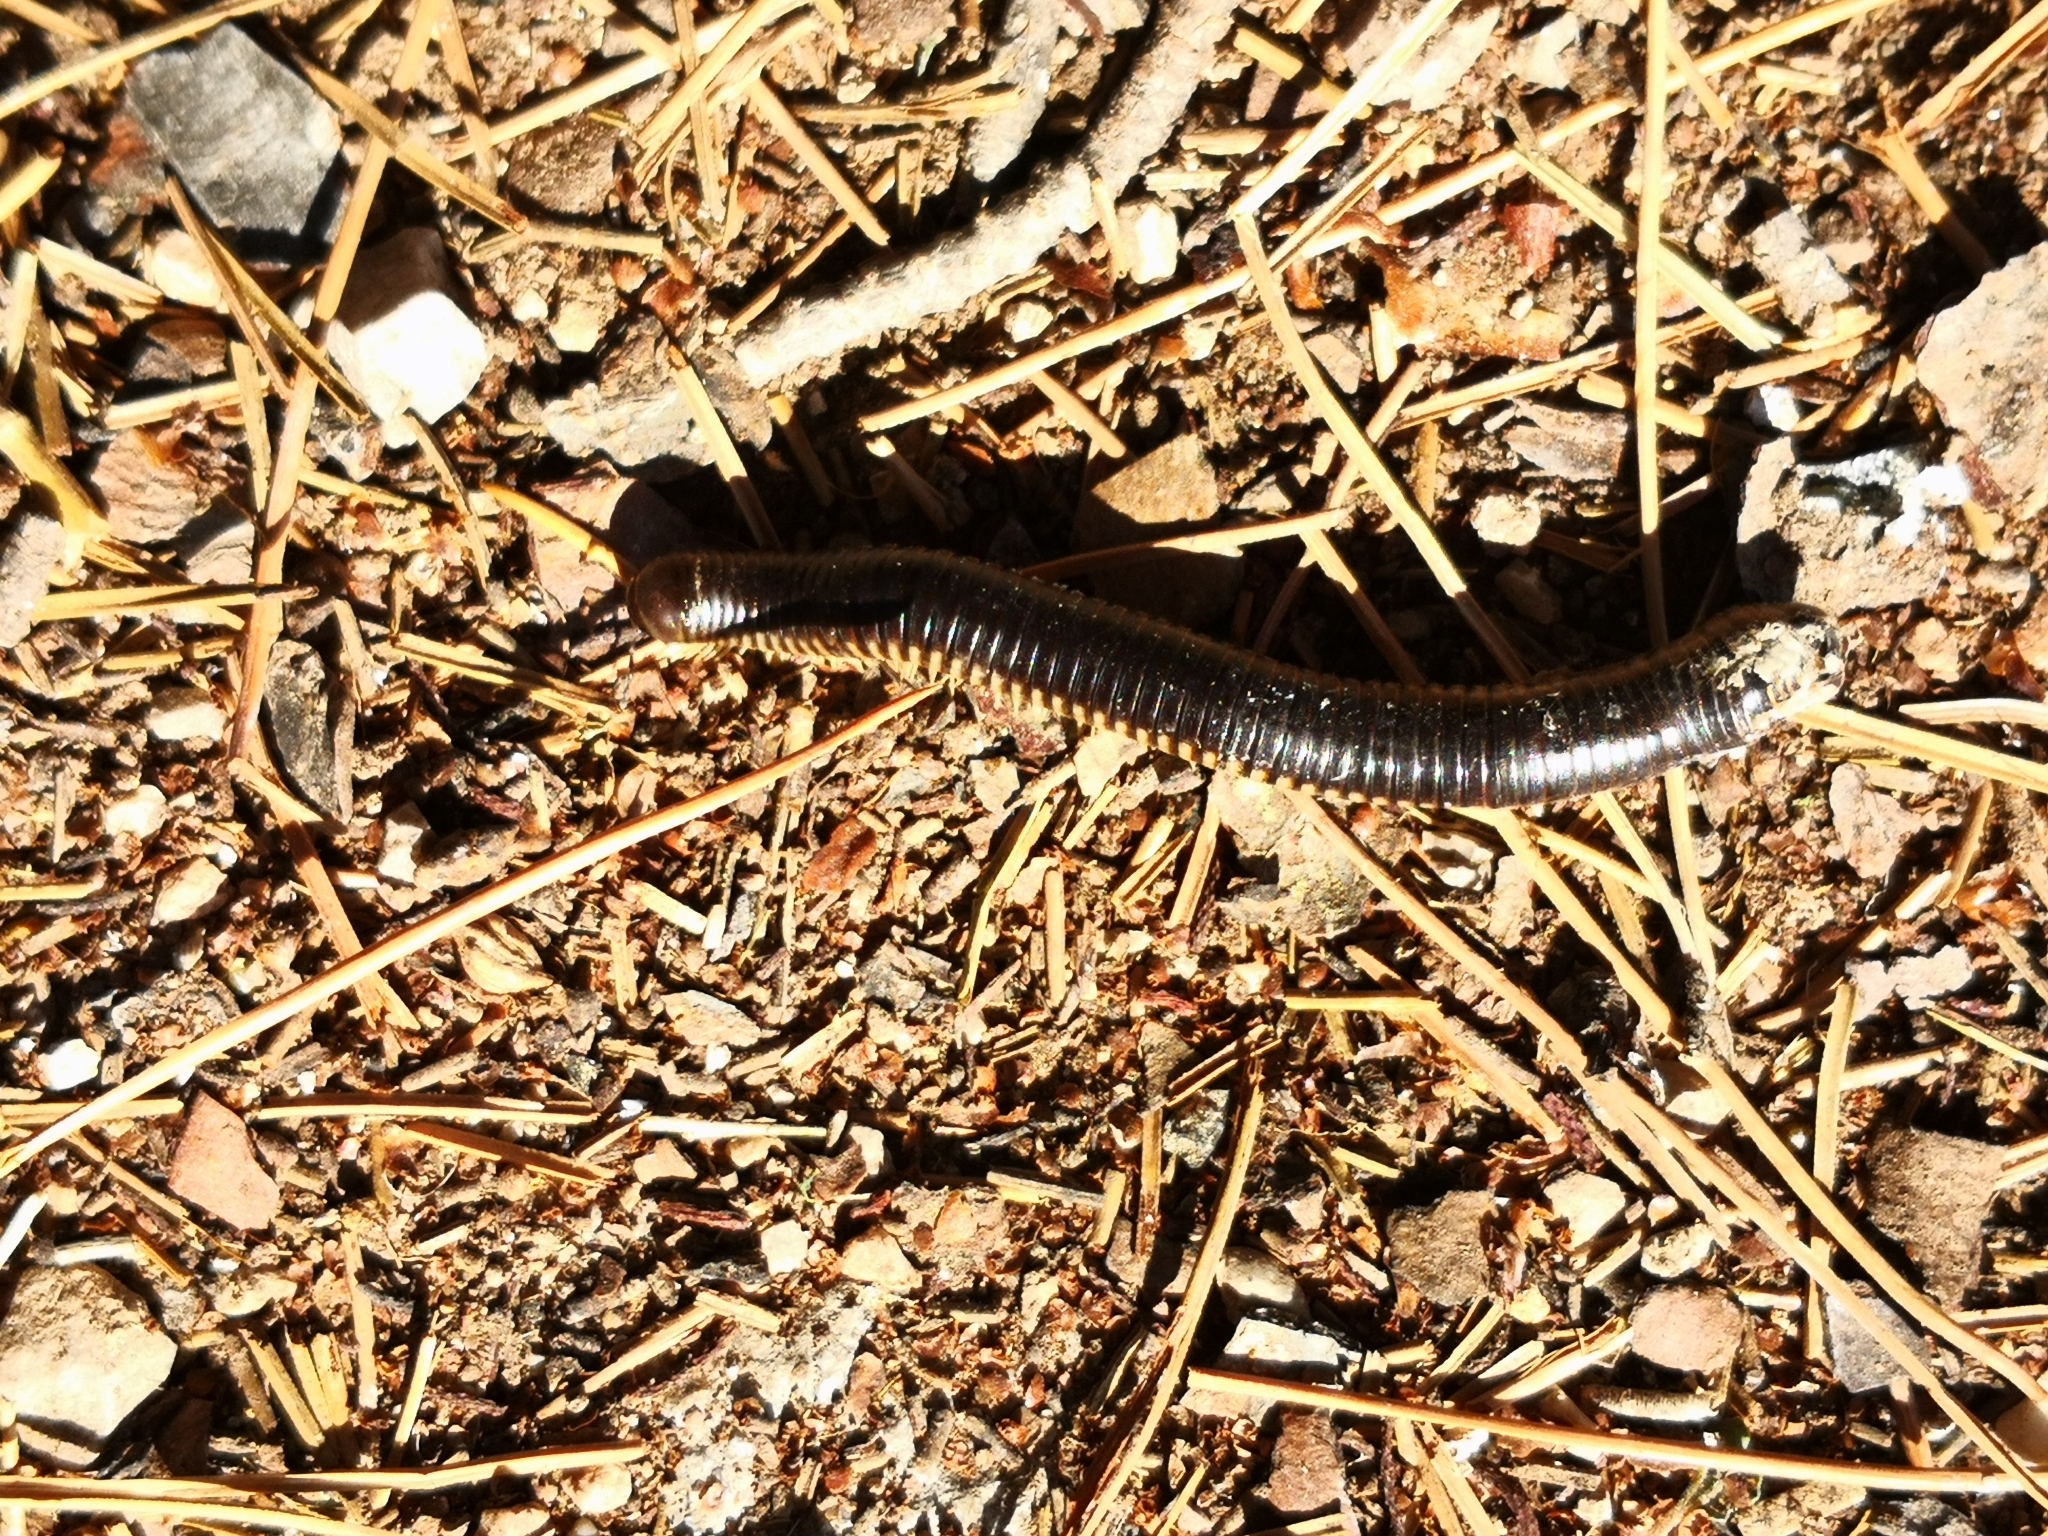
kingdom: Animalia
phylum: Arthropoda
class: Diplopoda
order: Julida
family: Julidae
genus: Pachyiulus
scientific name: Pachyiulus flavipes
